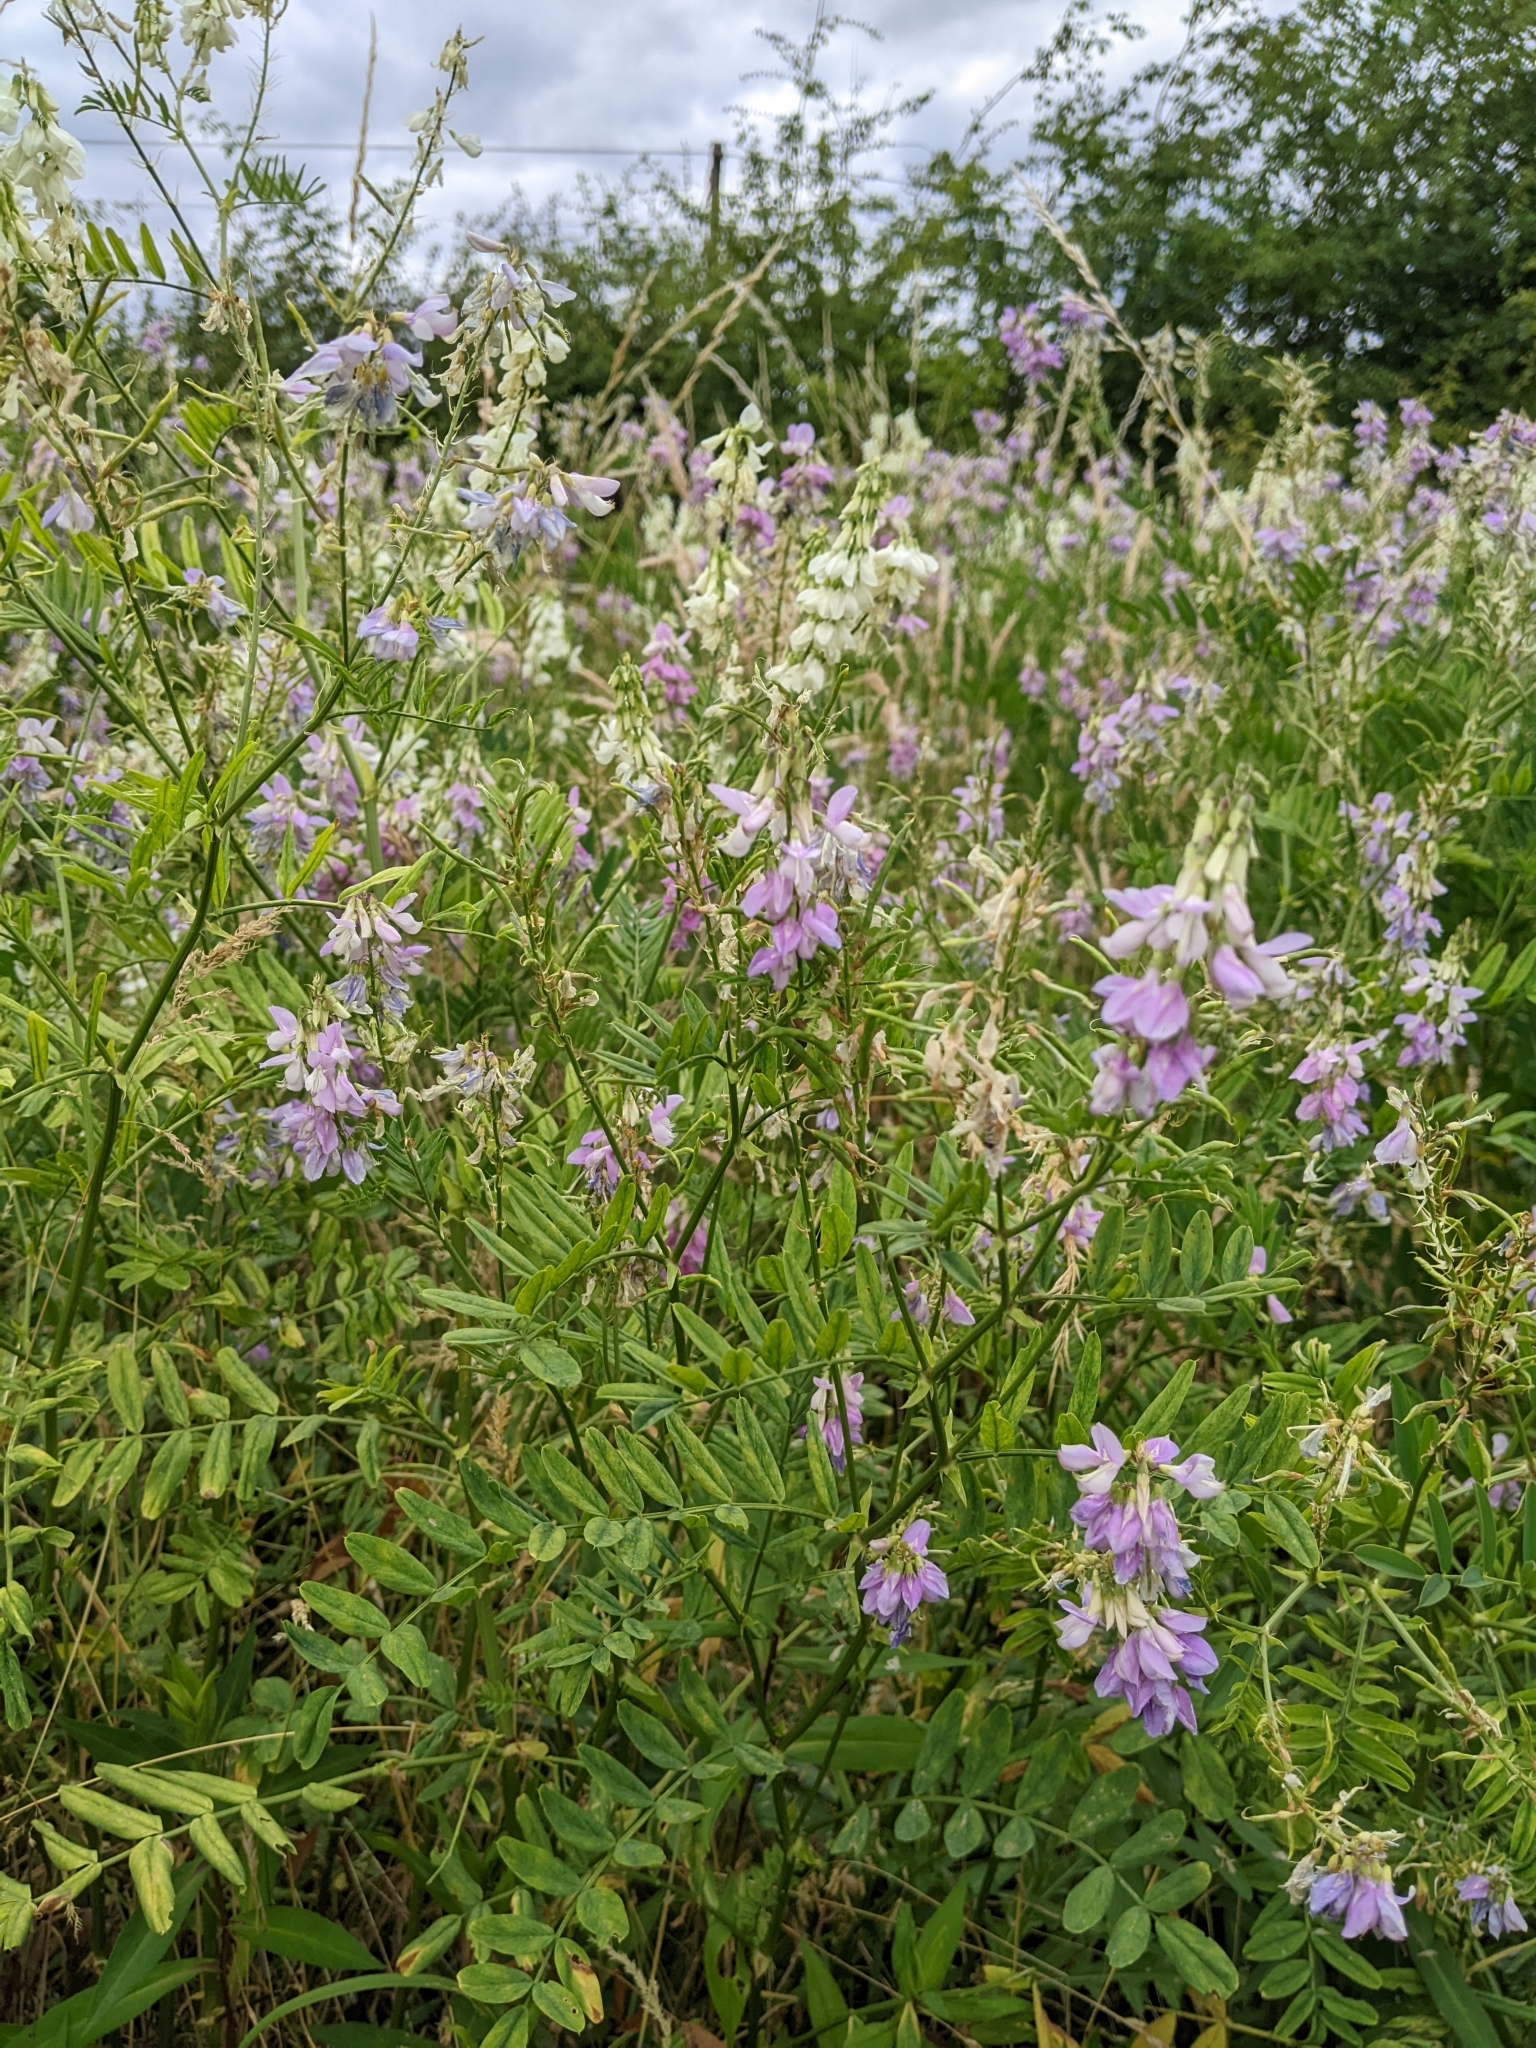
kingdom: Plantae
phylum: Tracheophyta
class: Magnoliopsida
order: Fabales
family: Fabaceae
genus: Galega
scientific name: Galega officinalis
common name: Goat's-rue
